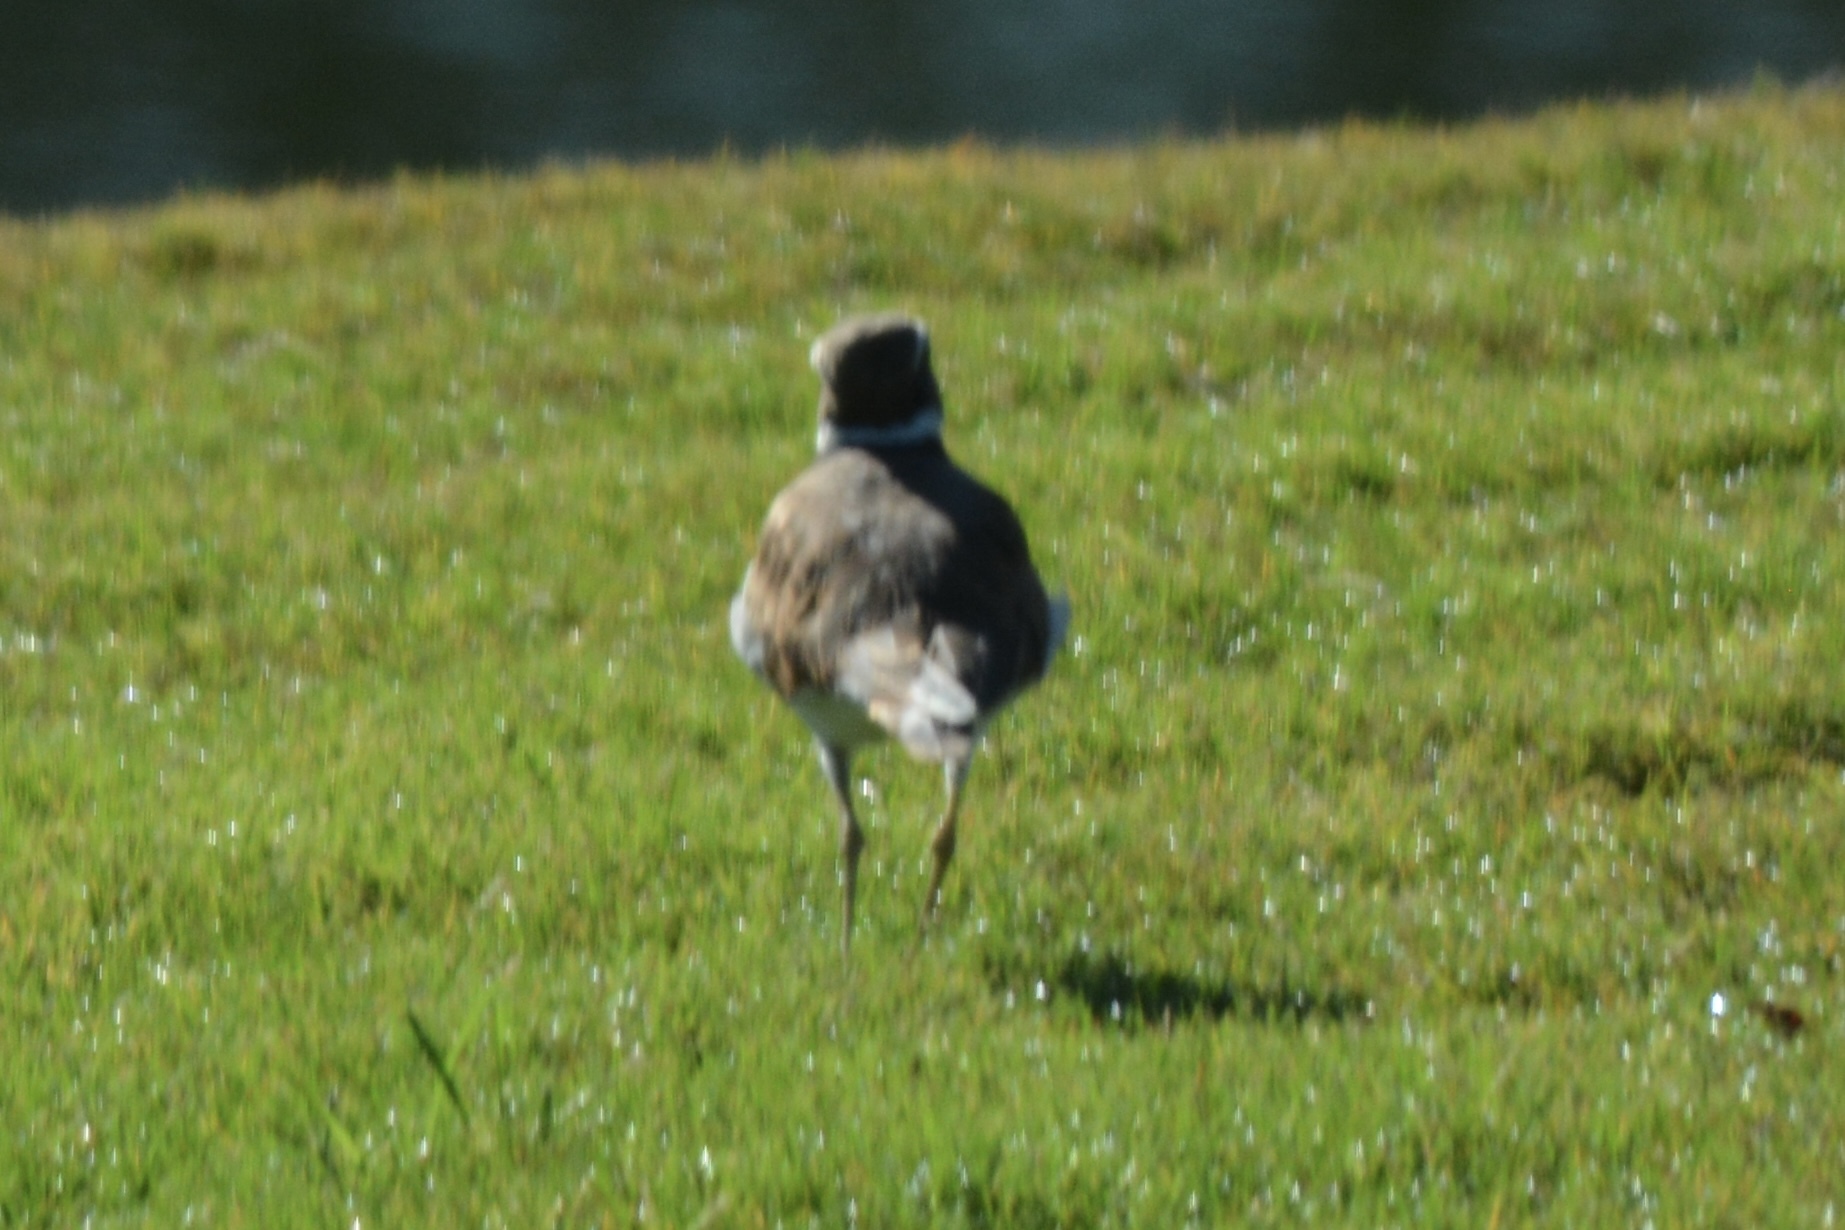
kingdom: Animalia
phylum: Chordata
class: Aves
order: Charadriiformes
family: Charadriidae
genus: Charadrius
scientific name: Charadrius vociferus
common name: Killdeer
